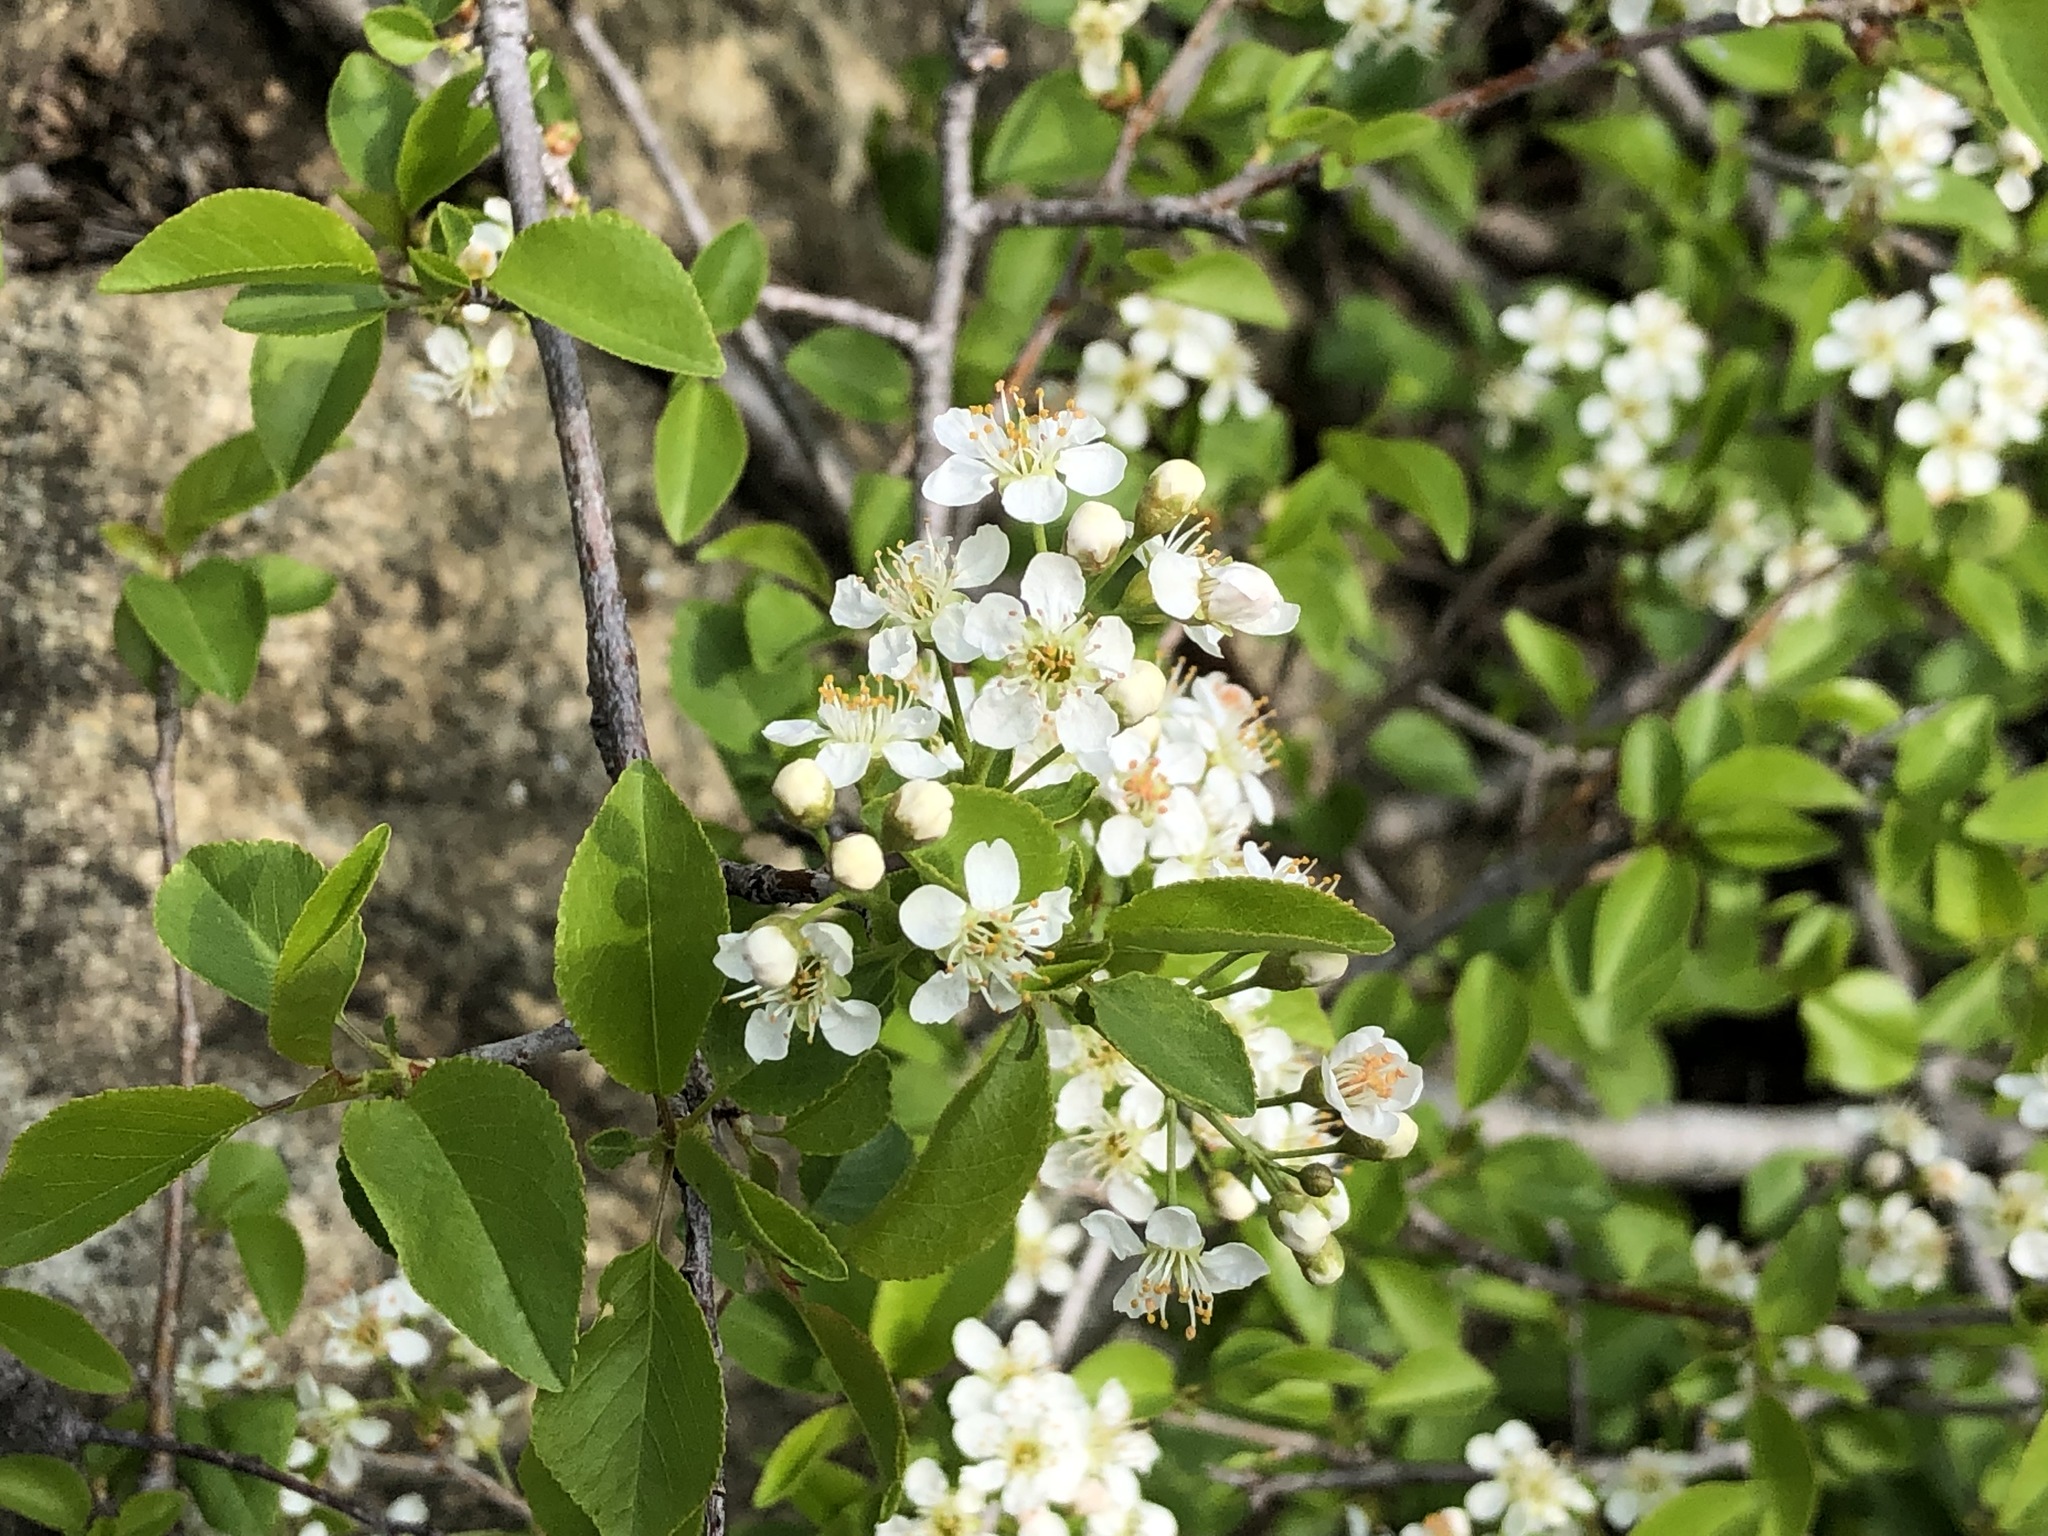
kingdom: Plantae
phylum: Tracheophyta
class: Magnoliopsida
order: Rosales
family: Rosaceae
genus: Prunus
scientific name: Prunus mahaleb
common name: Mahaleb cherry
